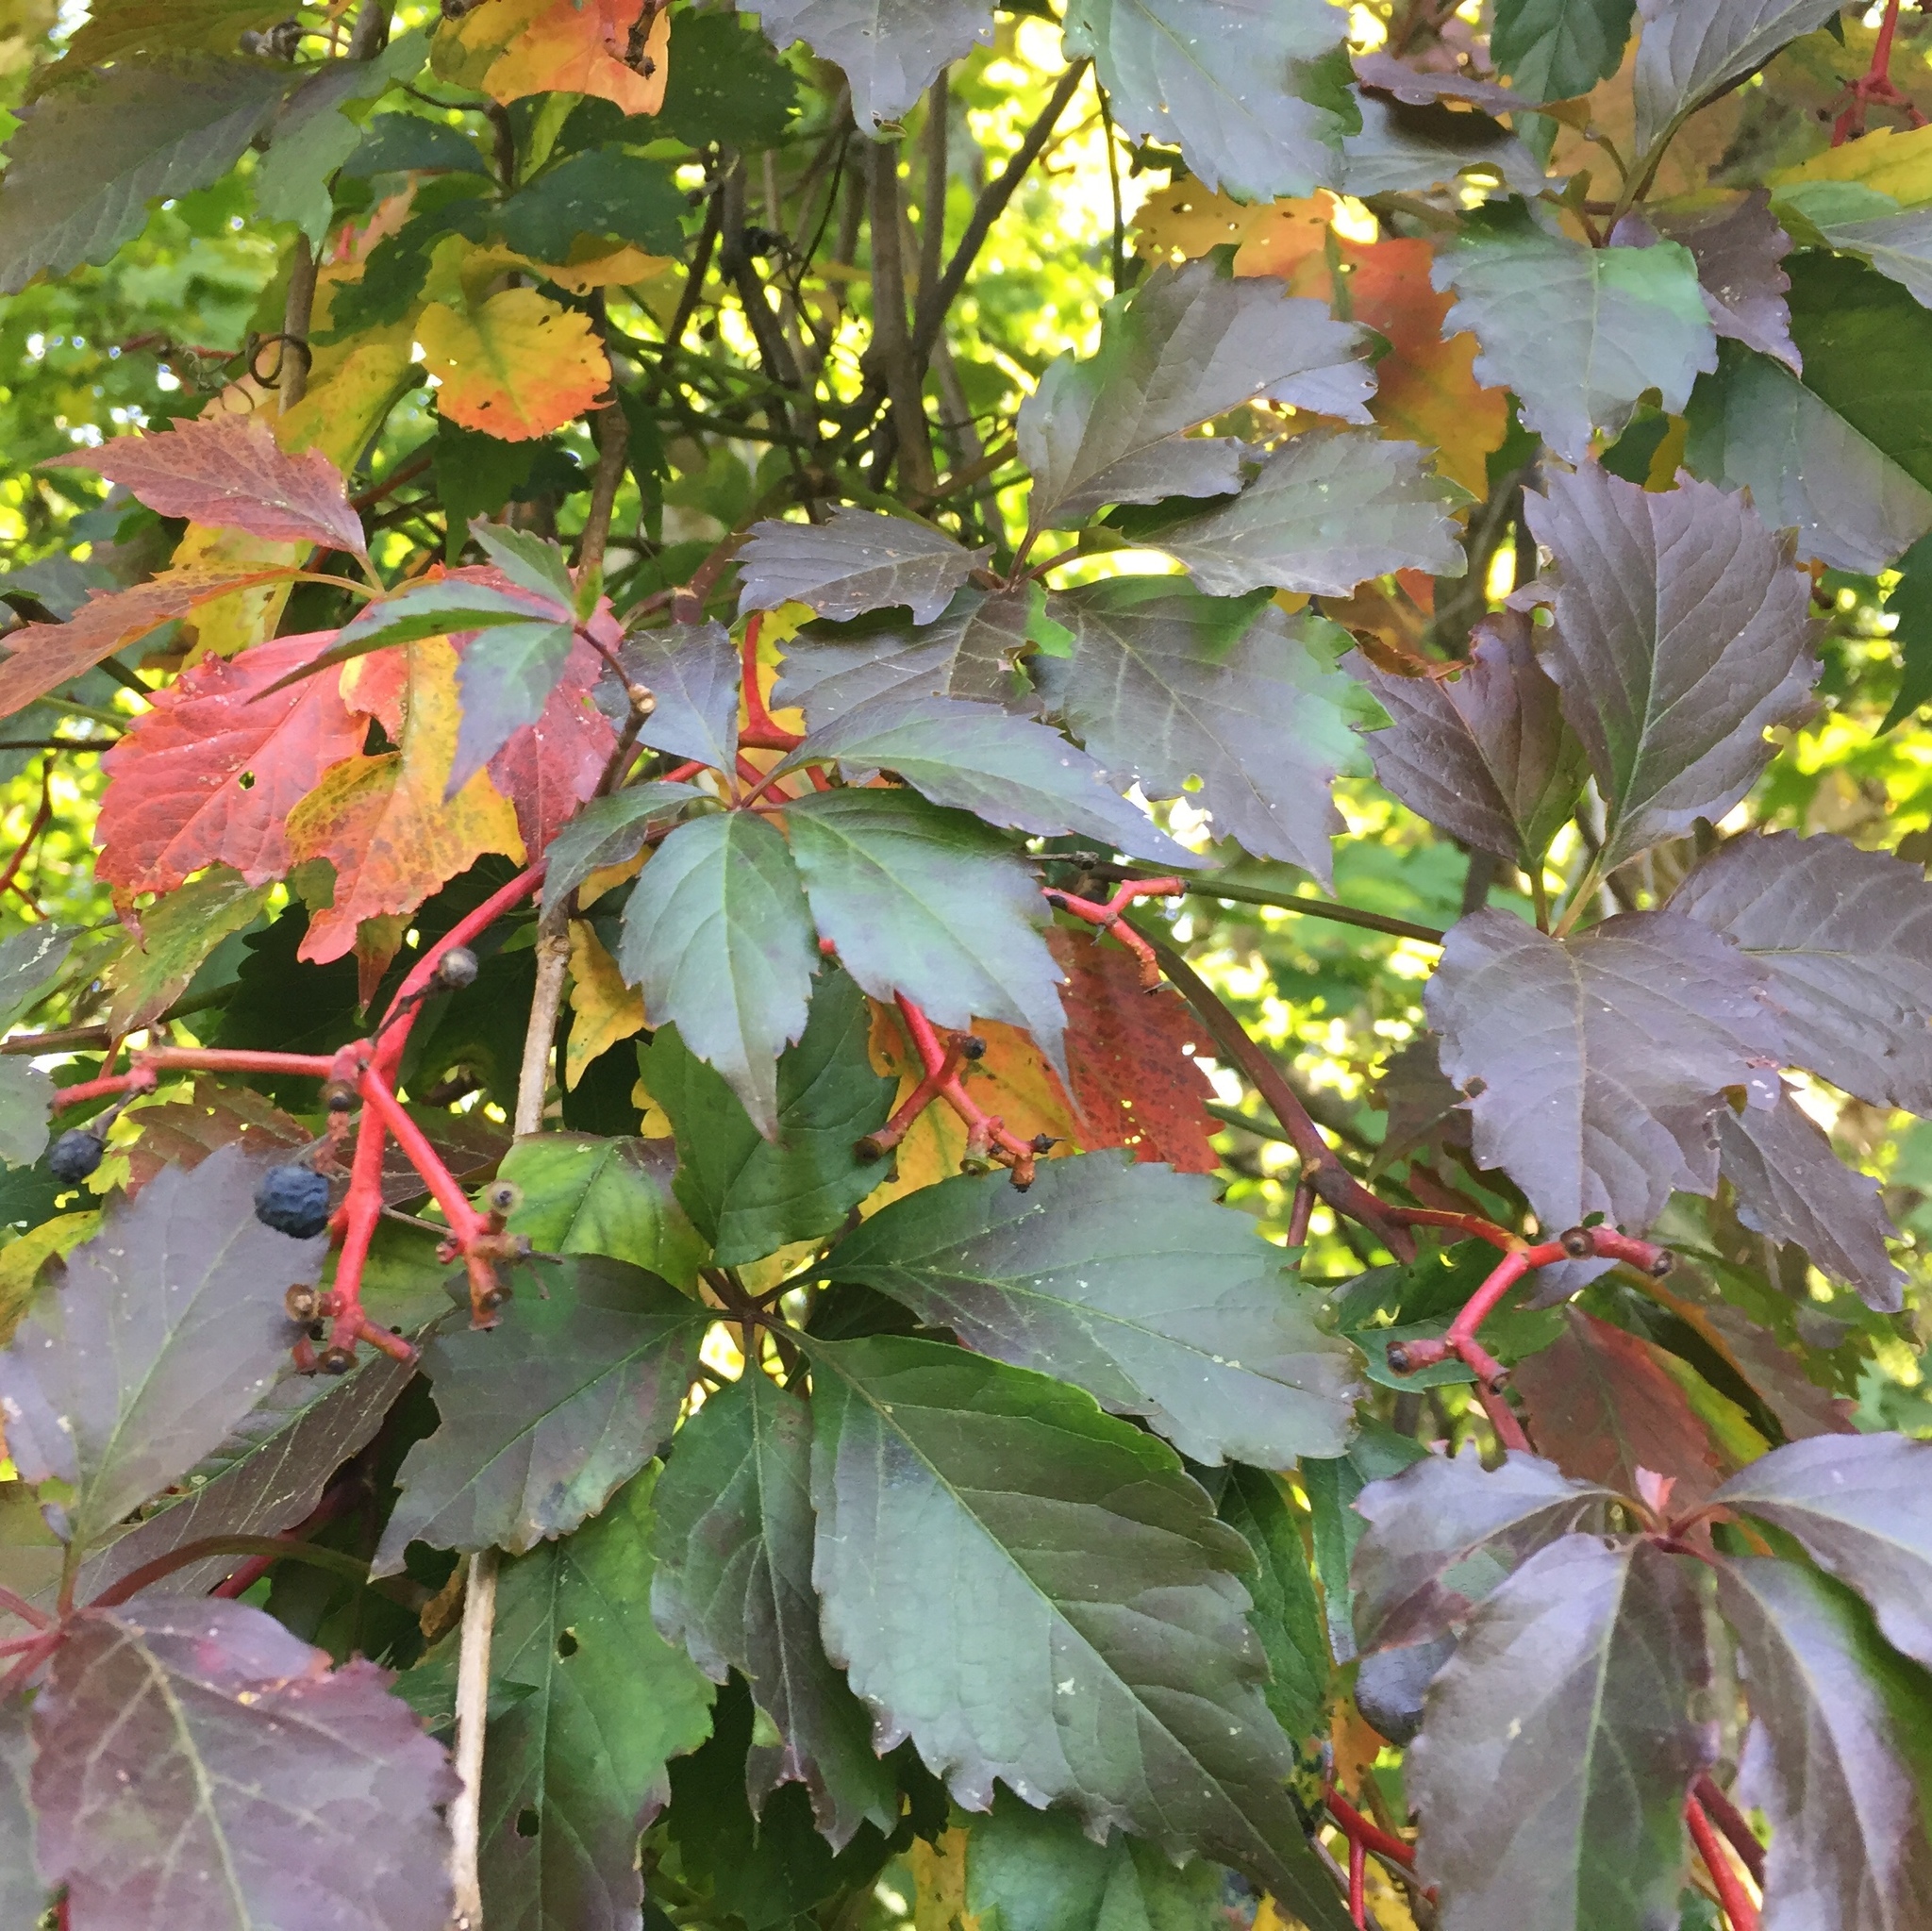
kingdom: Plantae
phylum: Tracheophyta
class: Magnoliopsida
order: Vitales
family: Vitaceae
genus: Parthenocissus
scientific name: Parthenocissus quinquefolia
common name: Virginia-creeper
